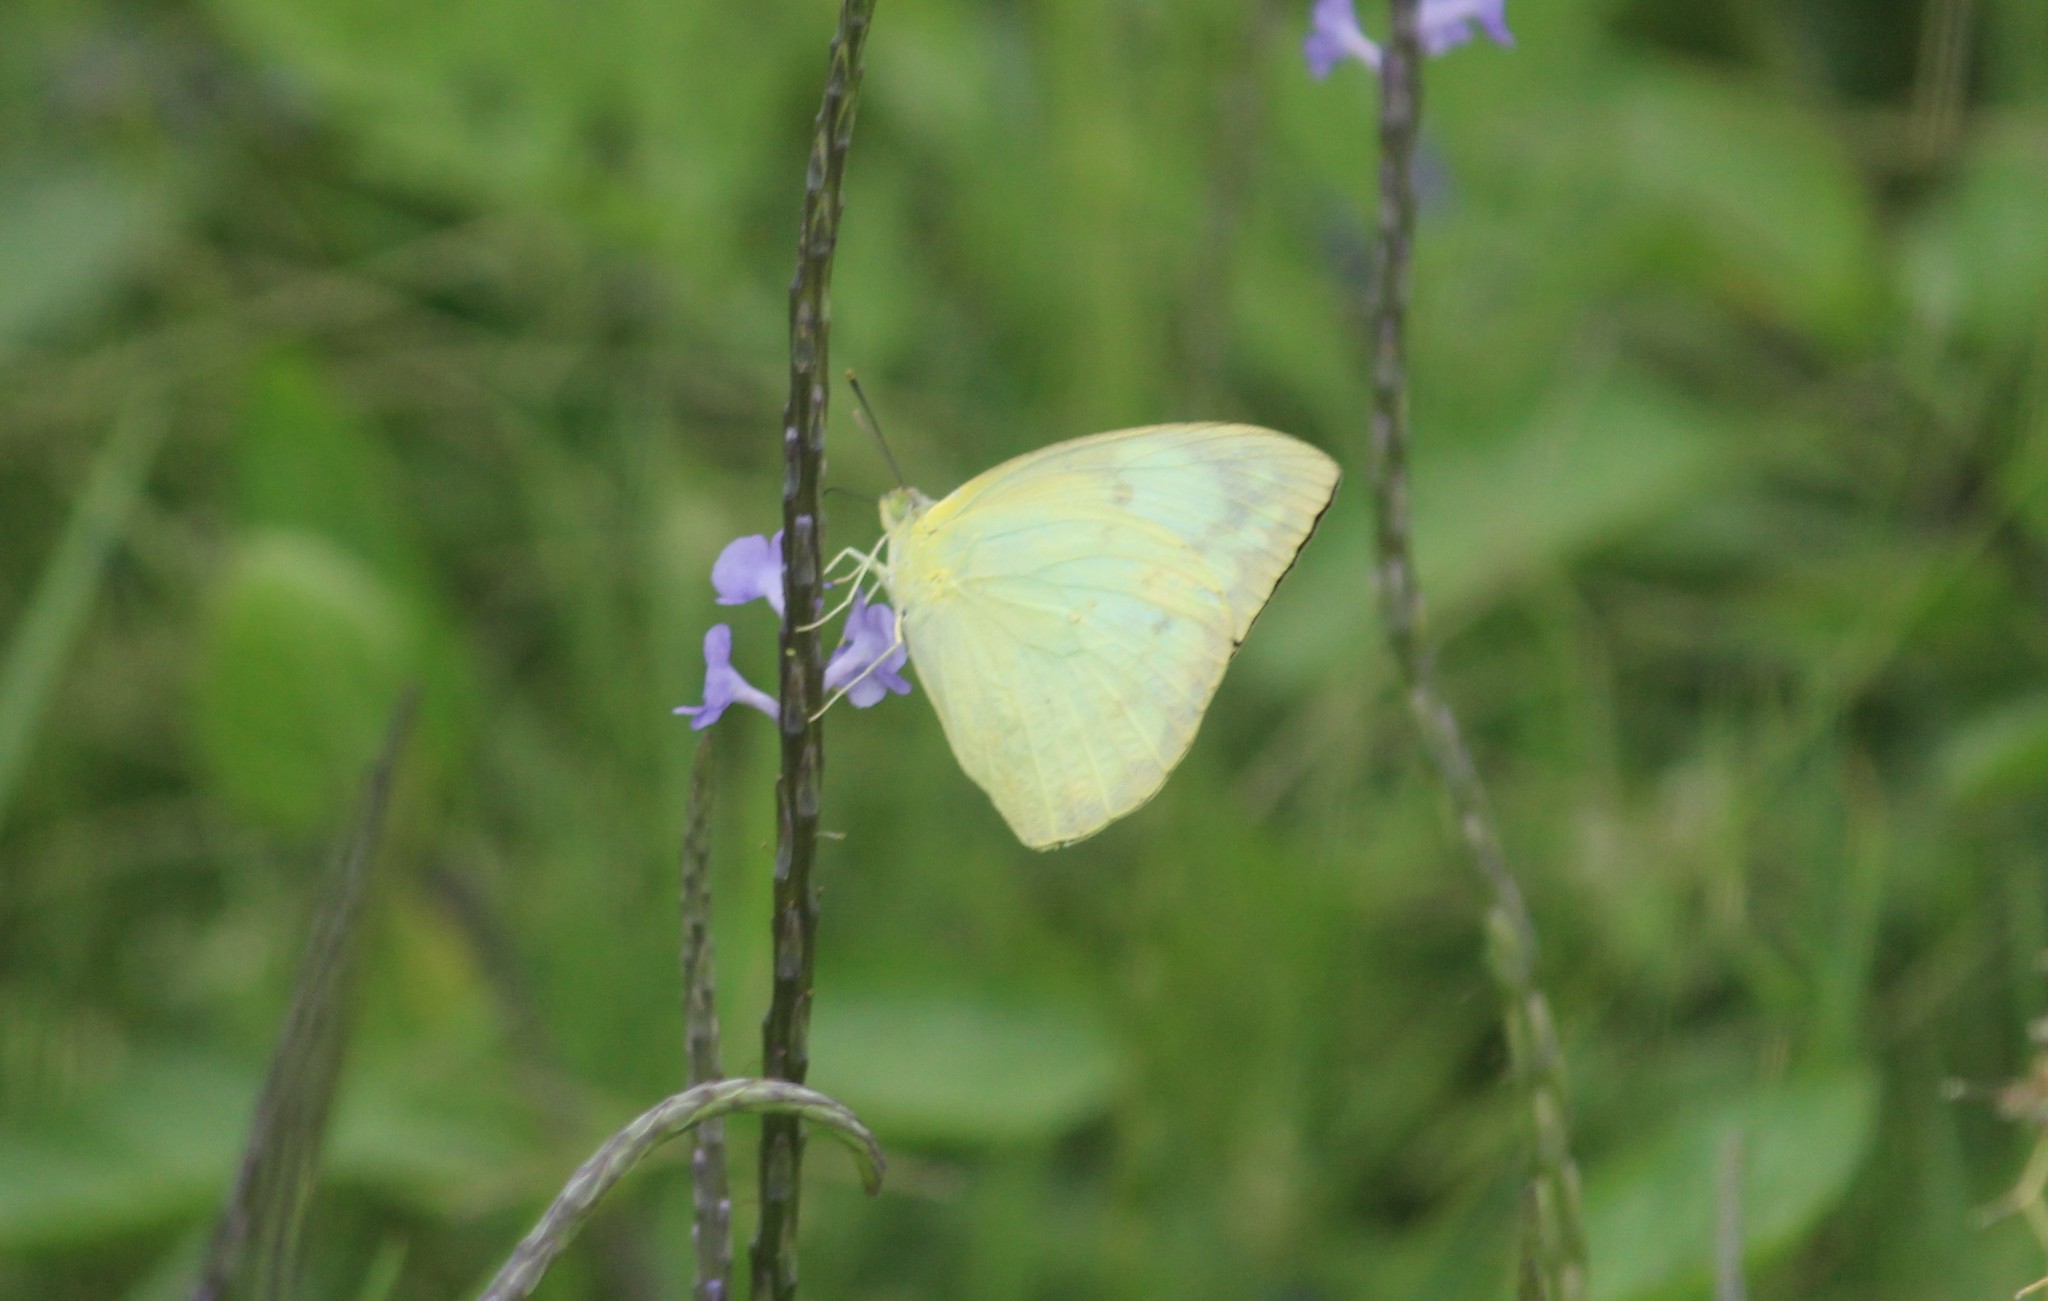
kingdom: Animalia
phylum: Arthropoda
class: Insecta
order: Lepidoptera
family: Pieridae
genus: Catopsilia
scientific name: Catopsilia pomona
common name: Common emigrant
